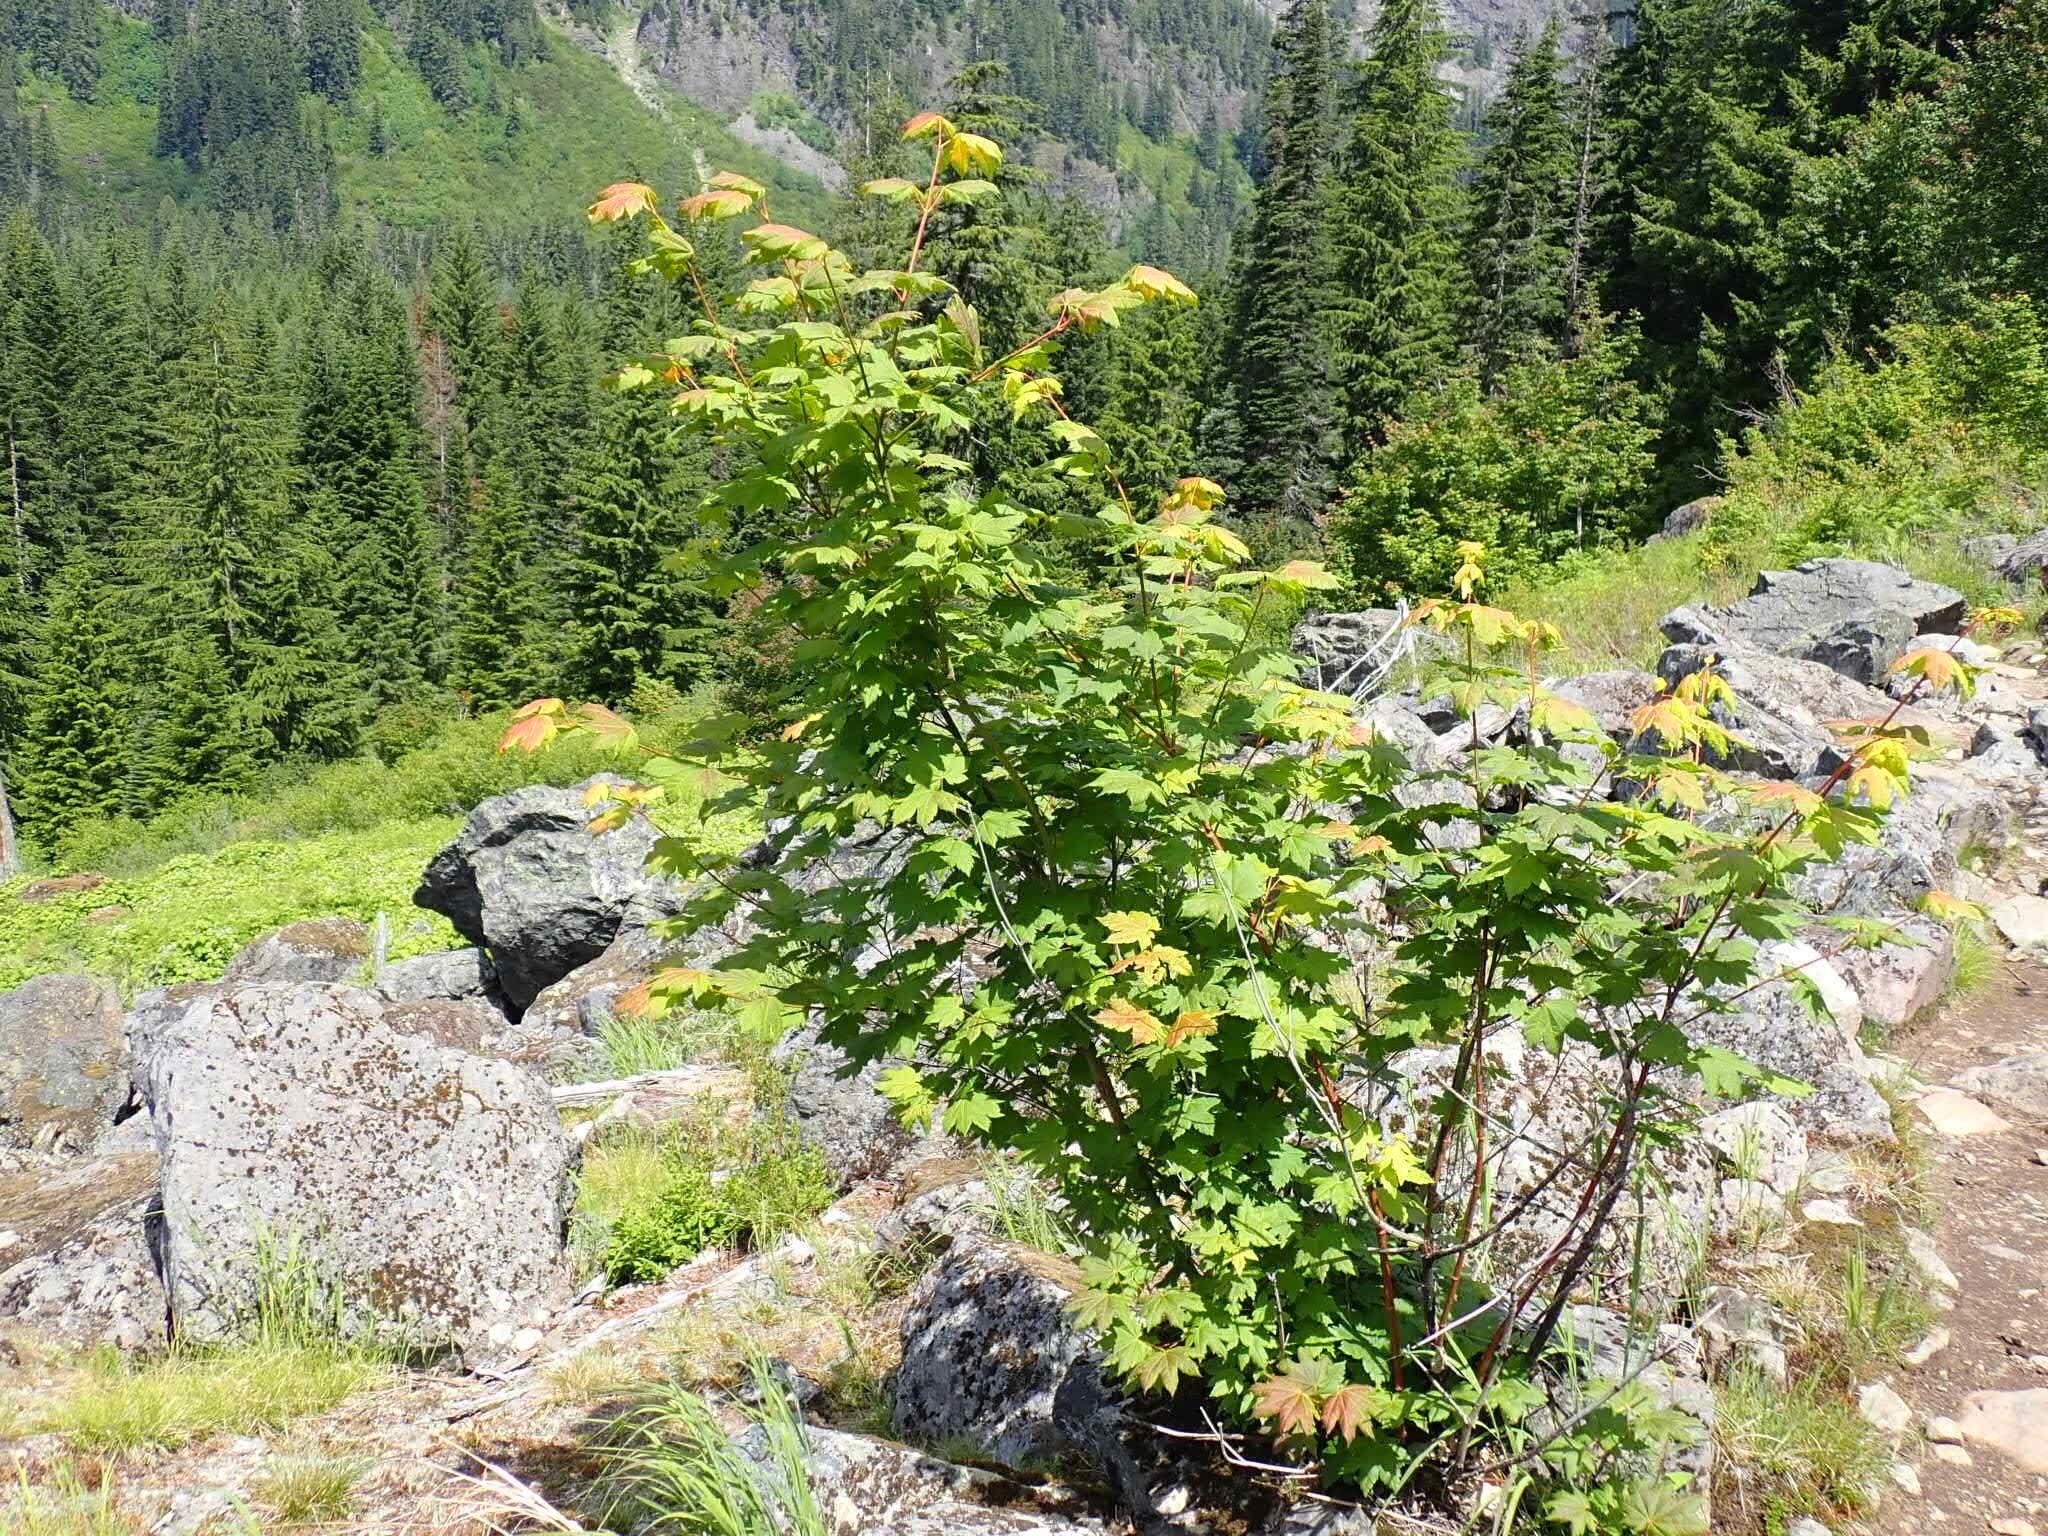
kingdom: Plantae
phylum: Tracheophyta
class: Magnoliopsida
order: Sapindales
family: Sapindaceae
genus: Acer
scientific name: Acer circinatum
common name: Vine maple
